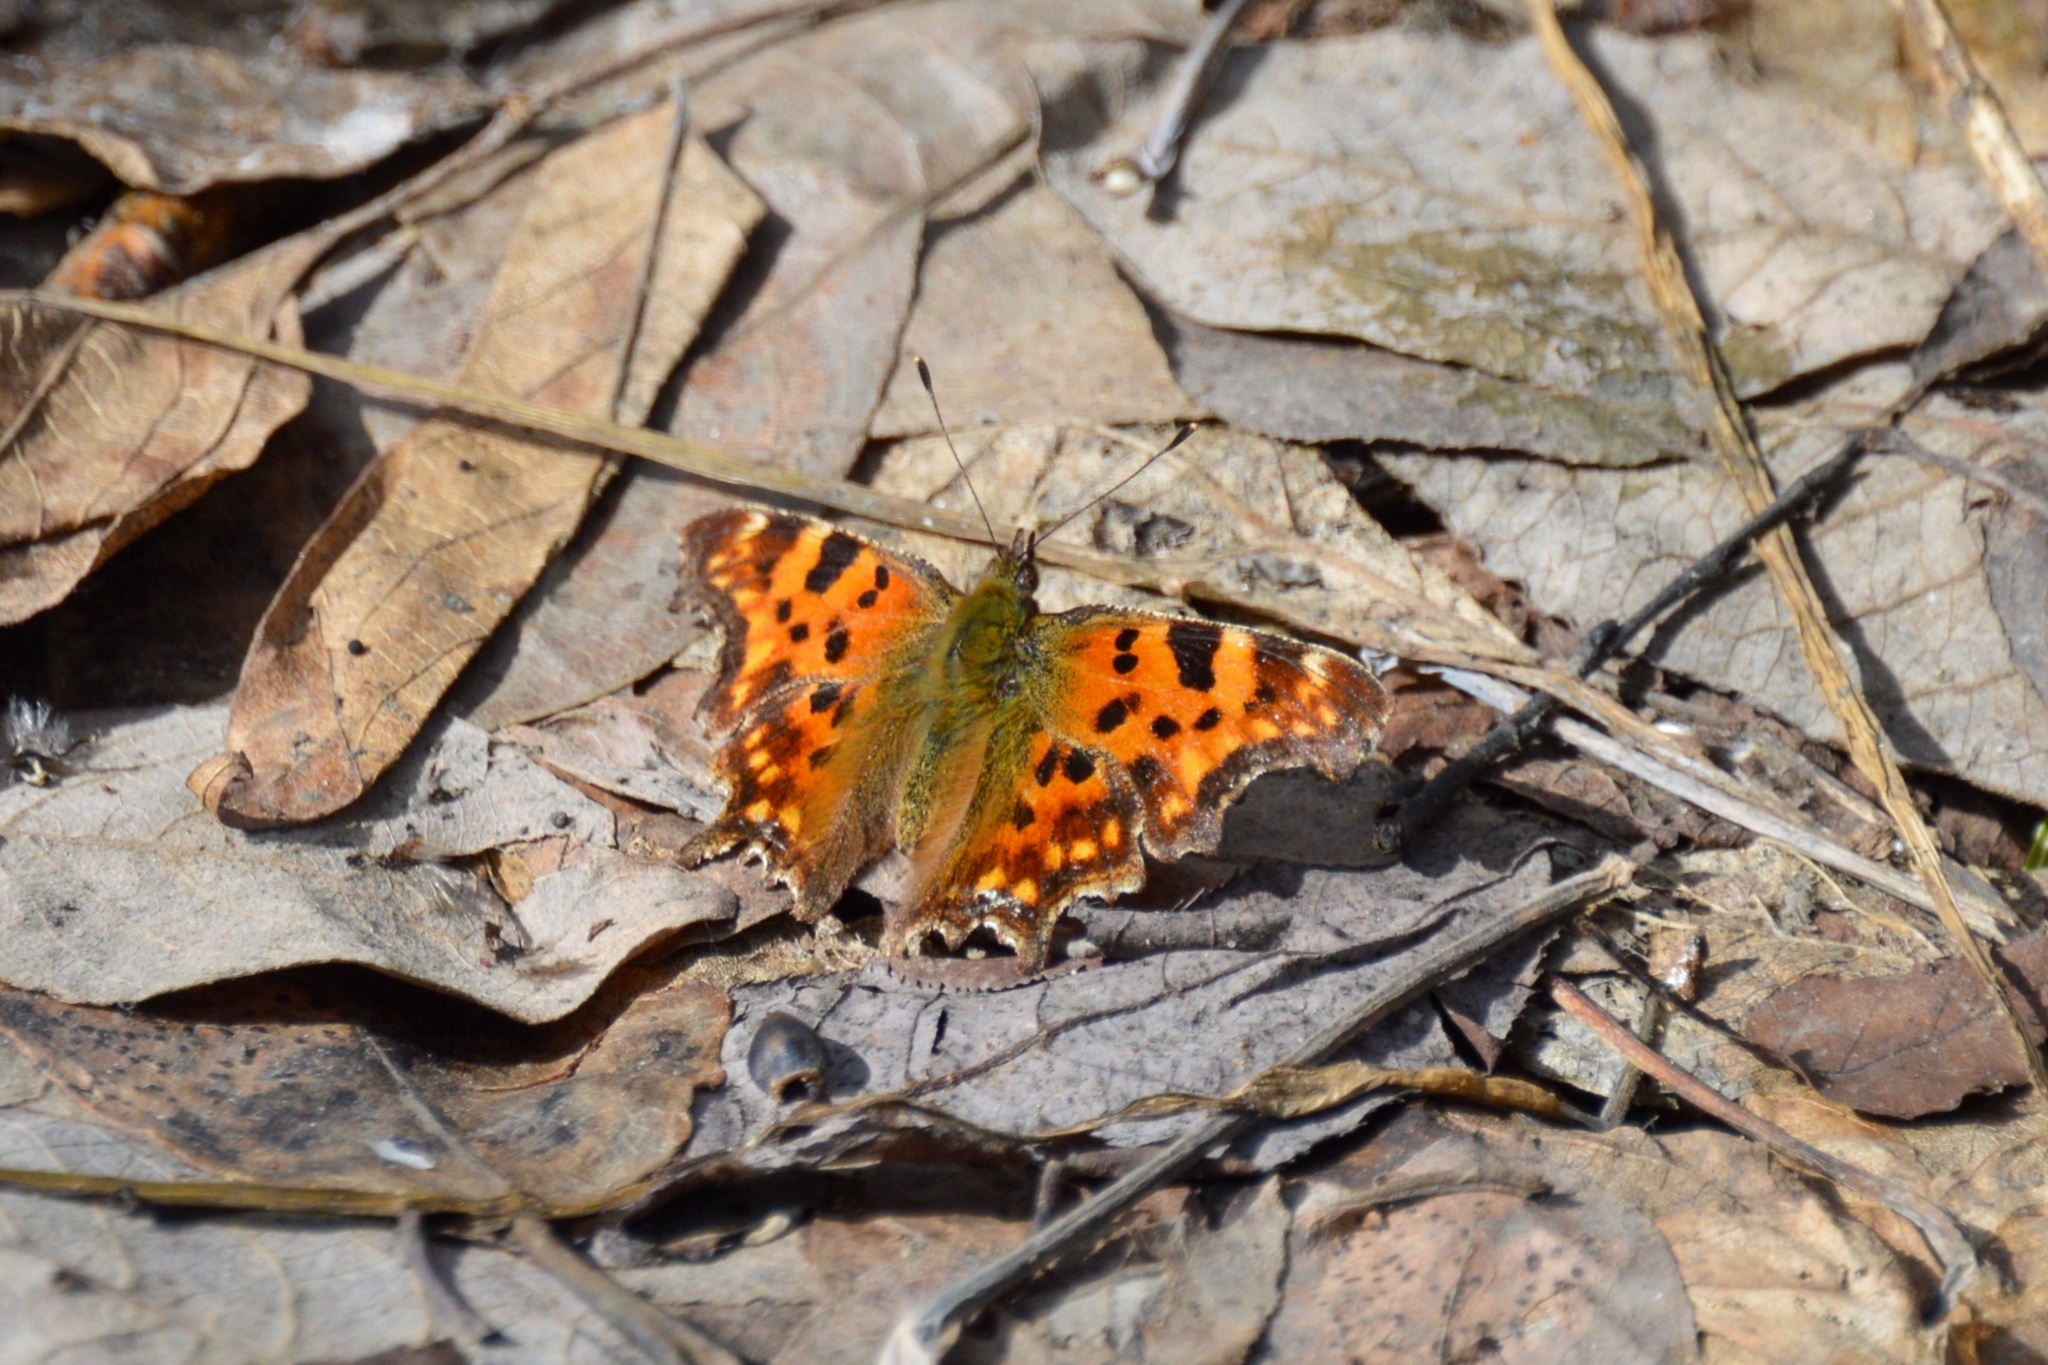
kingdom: Animalia
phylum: Arthropoda
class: Insecta
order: Lepidoptera
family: Nymphalidae
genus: Polygonia
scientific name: Polygonia c-album
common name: Comma
